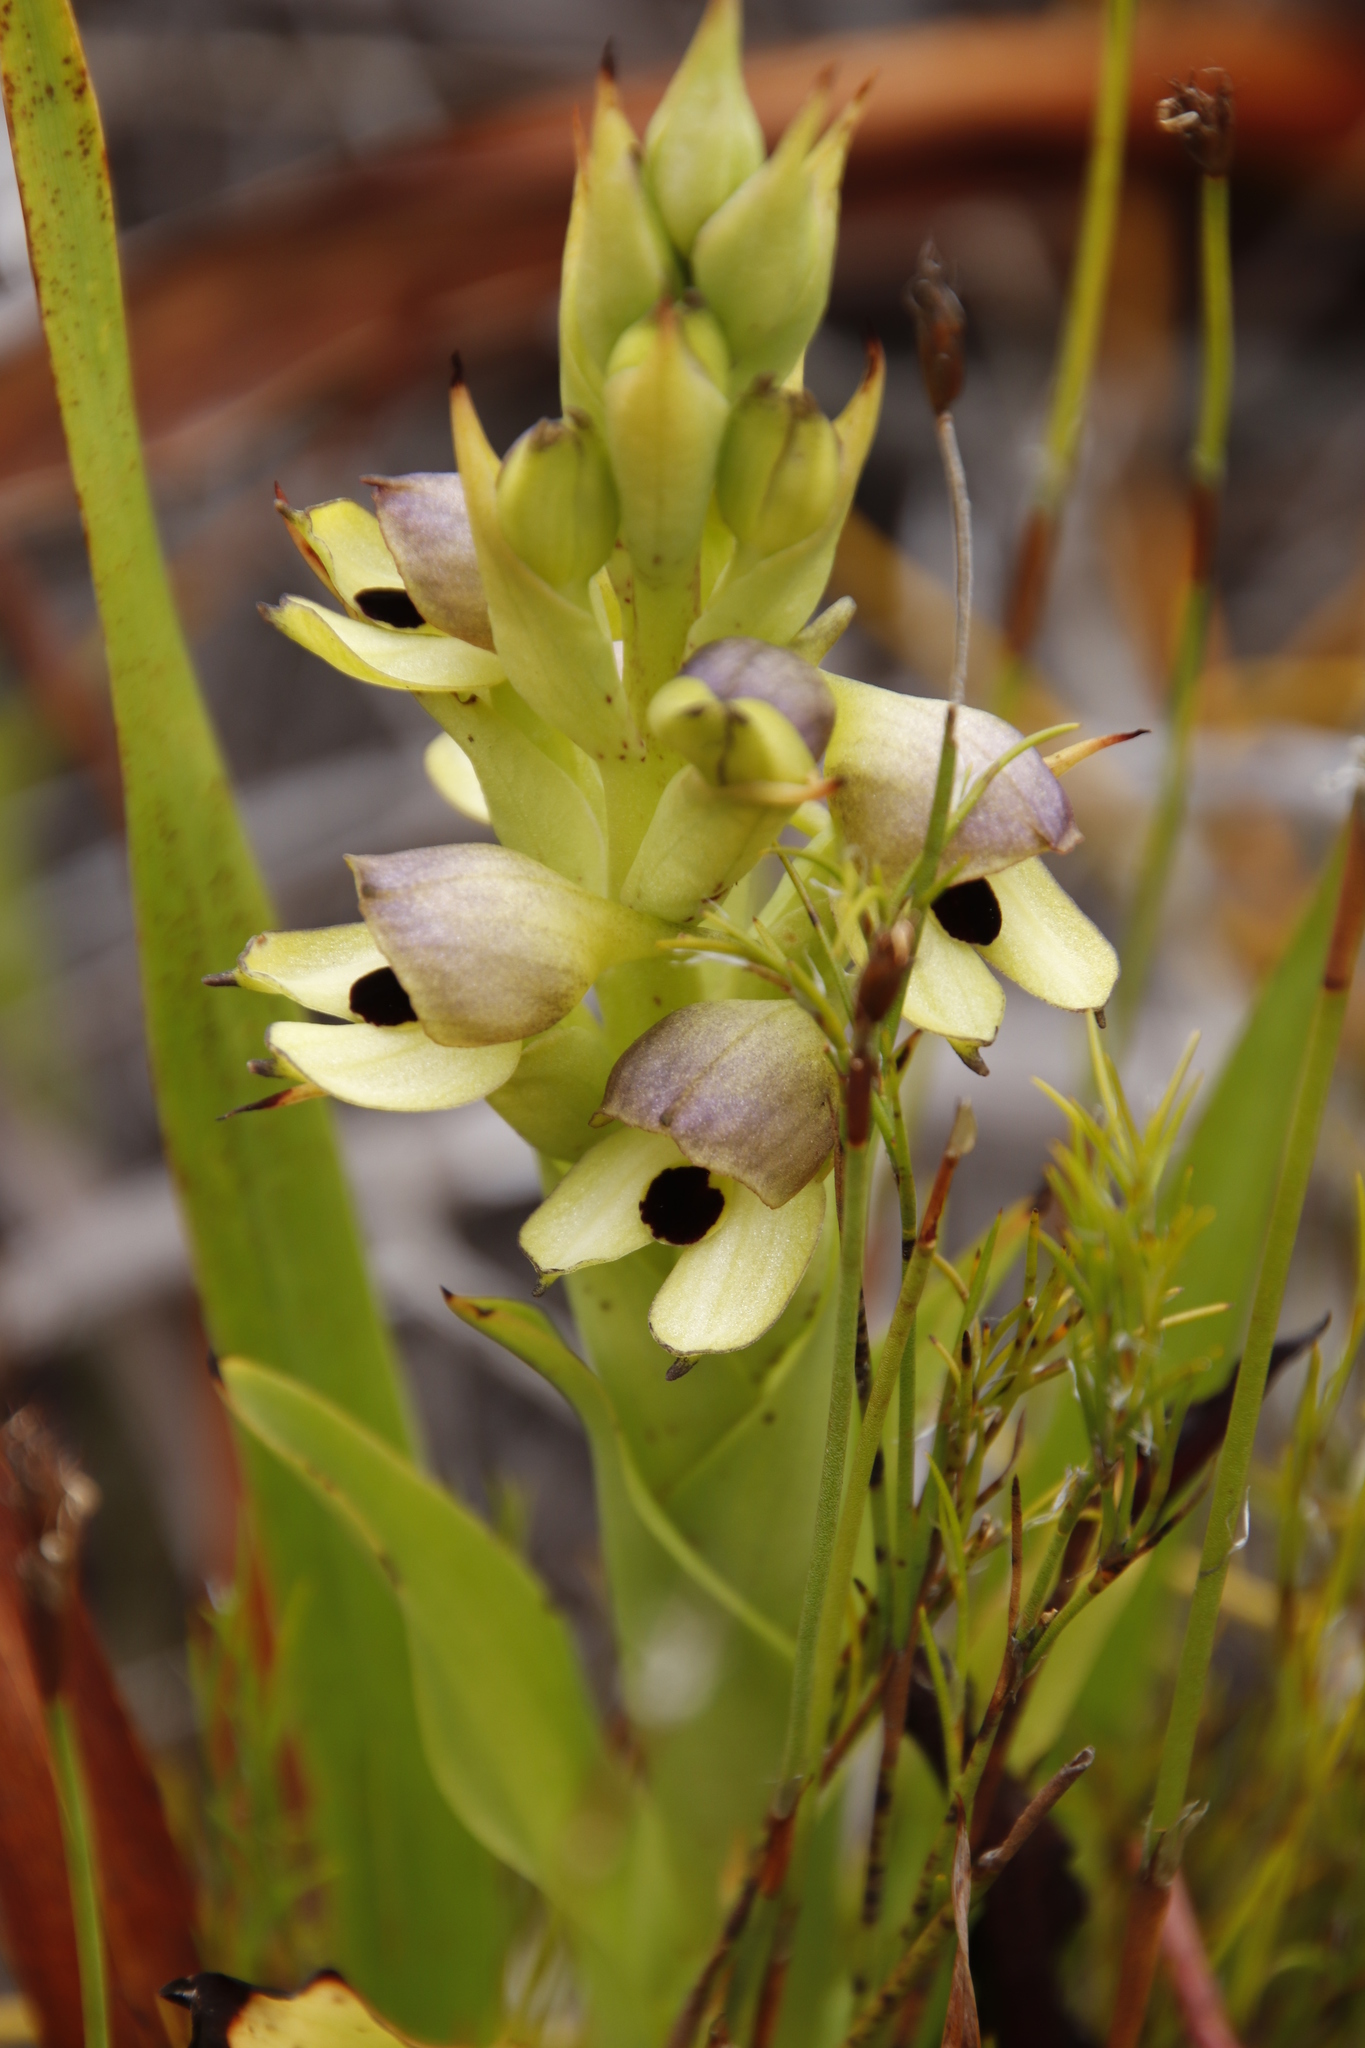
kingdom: Plantae
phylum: Tracheophyta
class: Liliopsida
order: Asparagales
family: Orchidaceae
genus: Disa
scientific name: Disa cornuta
